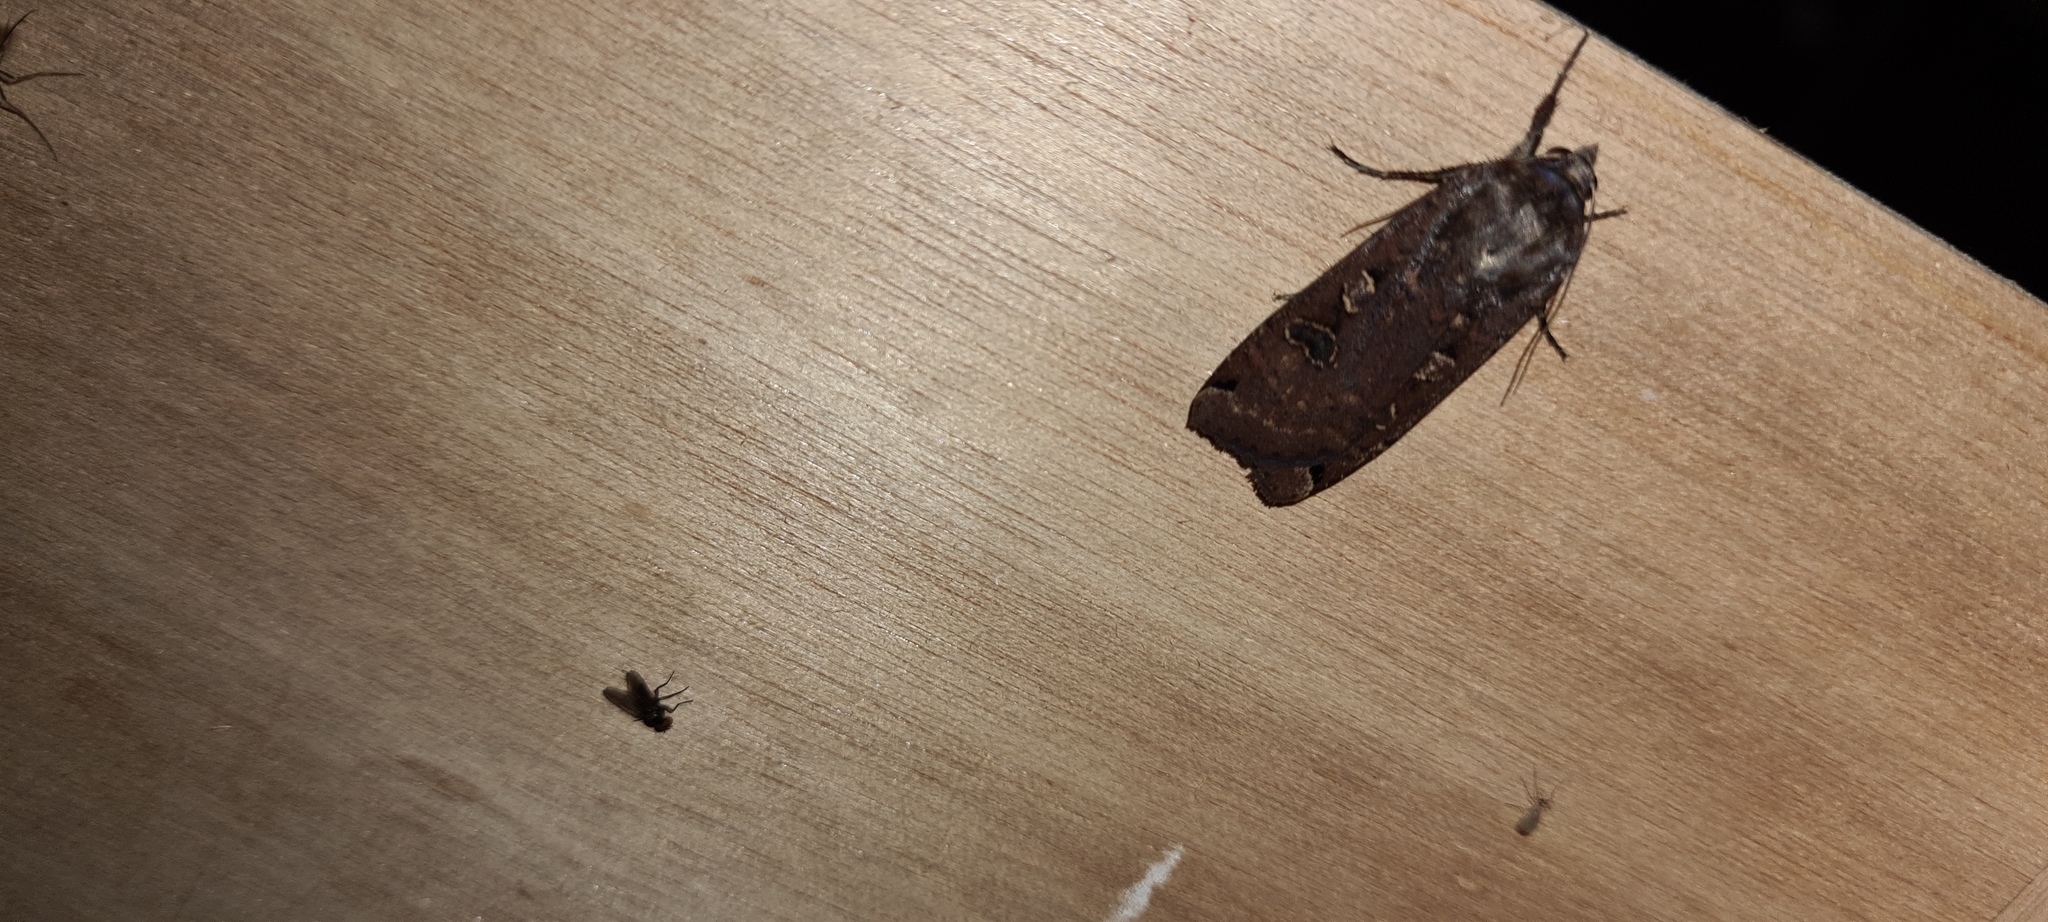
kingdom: Animalia
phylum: Arthropoda
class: Insecta
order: Lepidoptera
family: Noctuidae
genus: Noctua
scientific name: Noctua pronuba
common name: Large yellow underwing
